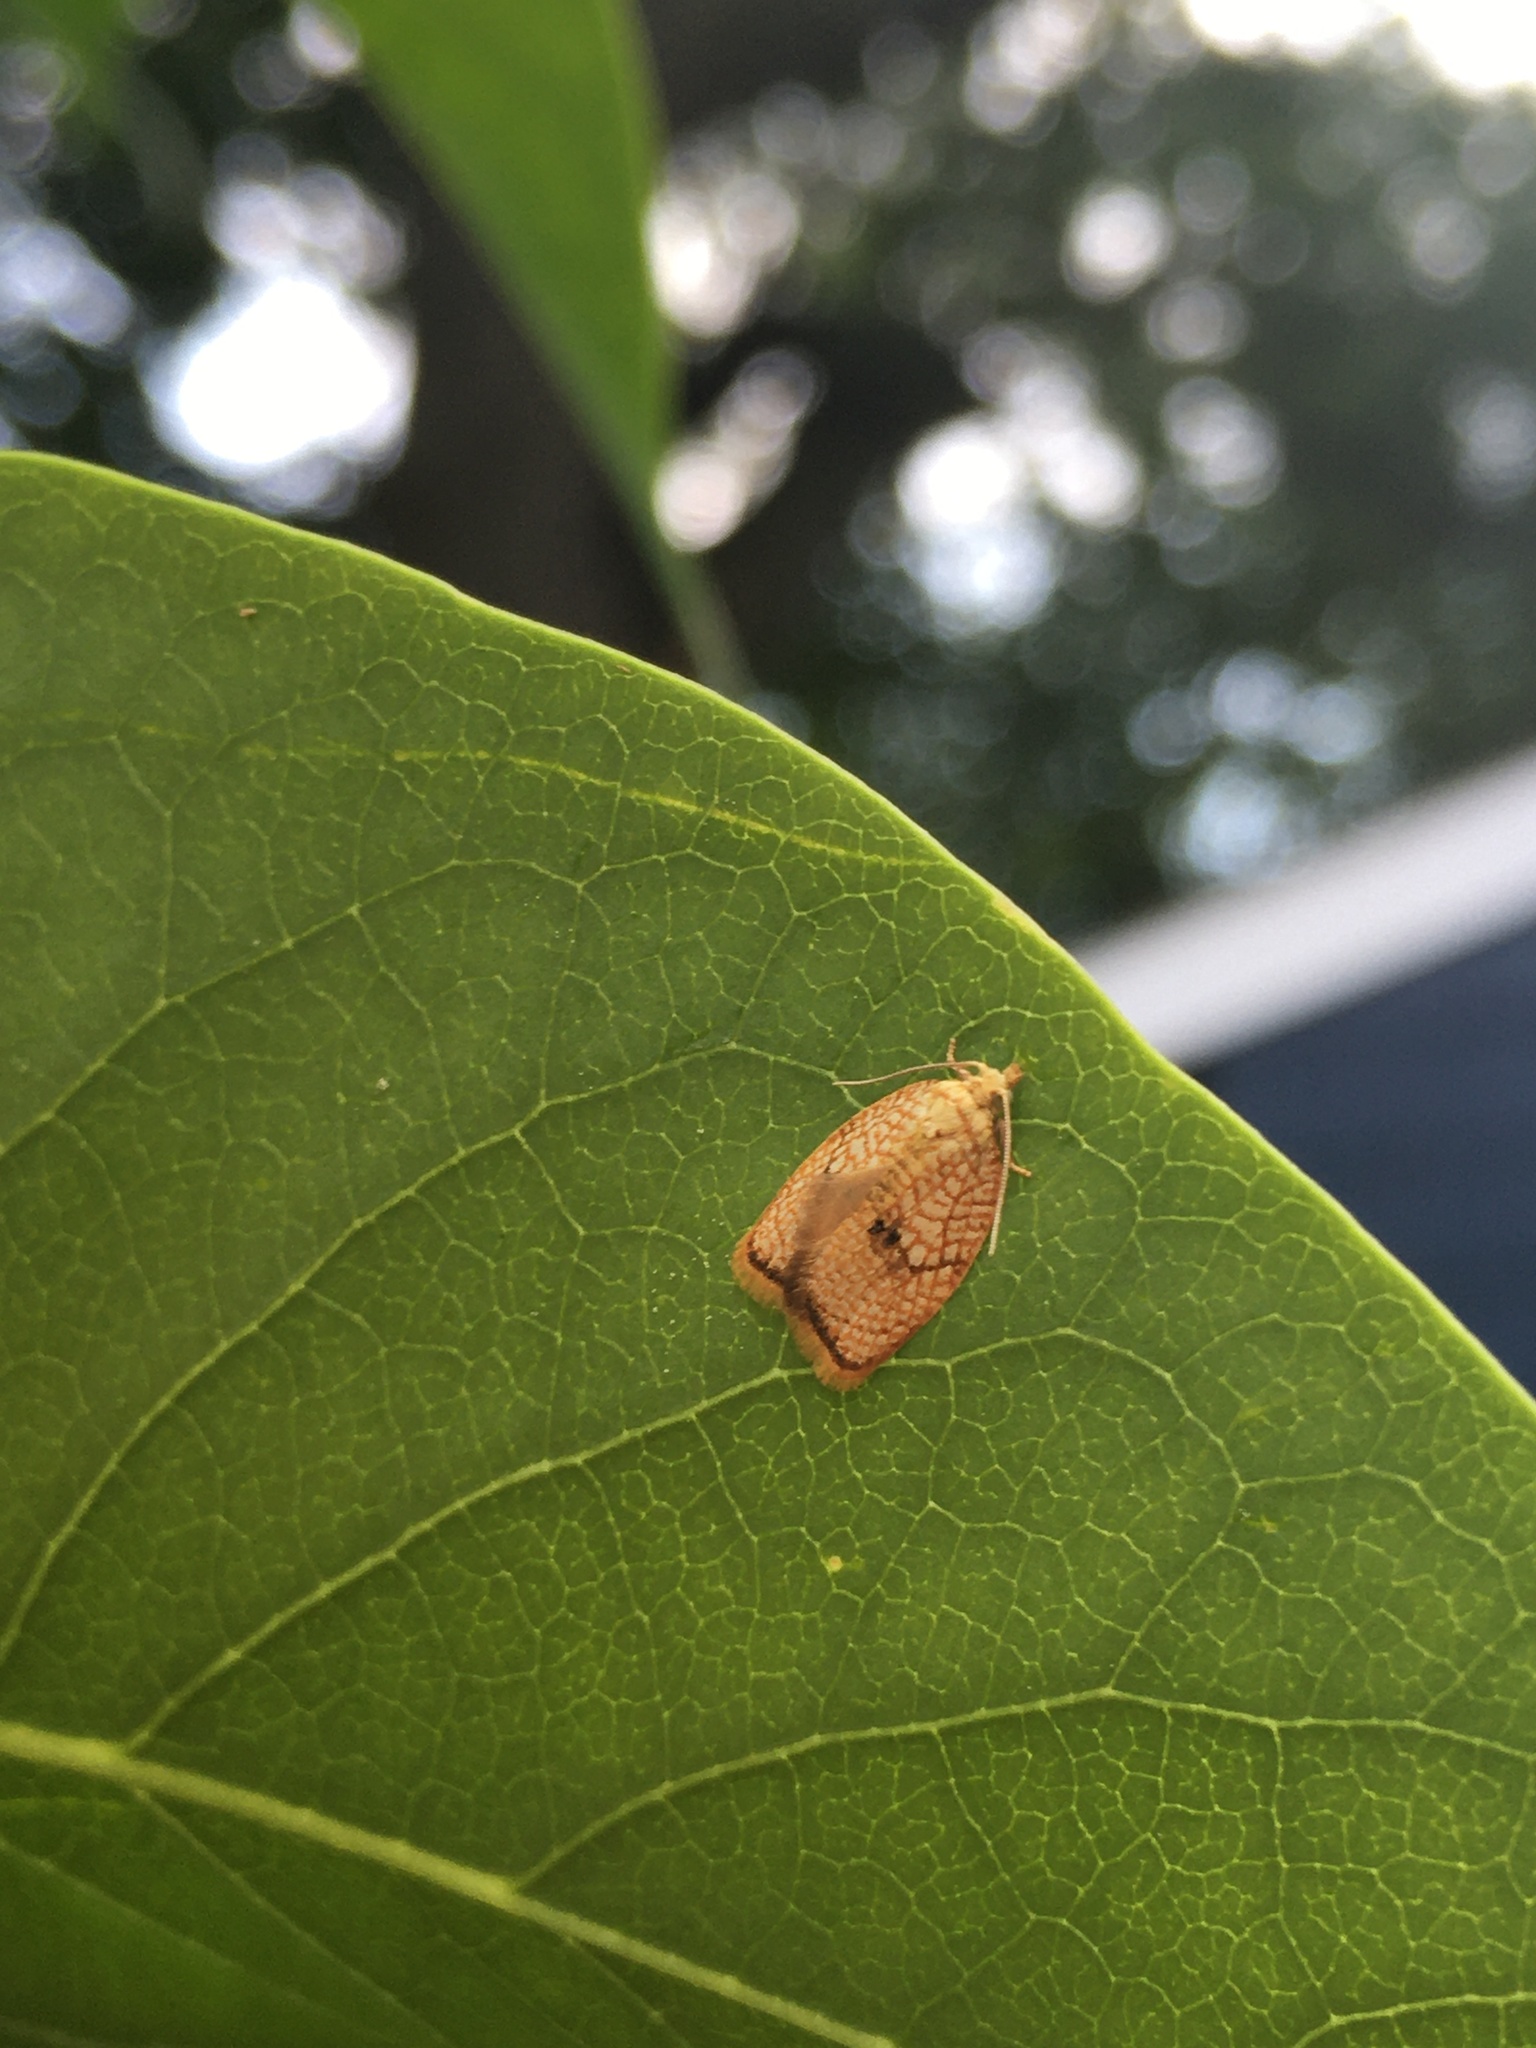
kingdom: Animalia
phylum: Arthropoda
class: Insecta
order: Lepidoptera
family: Tortricidae
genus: Acleris
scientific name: Acleris forsskaleana
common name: Maple button
